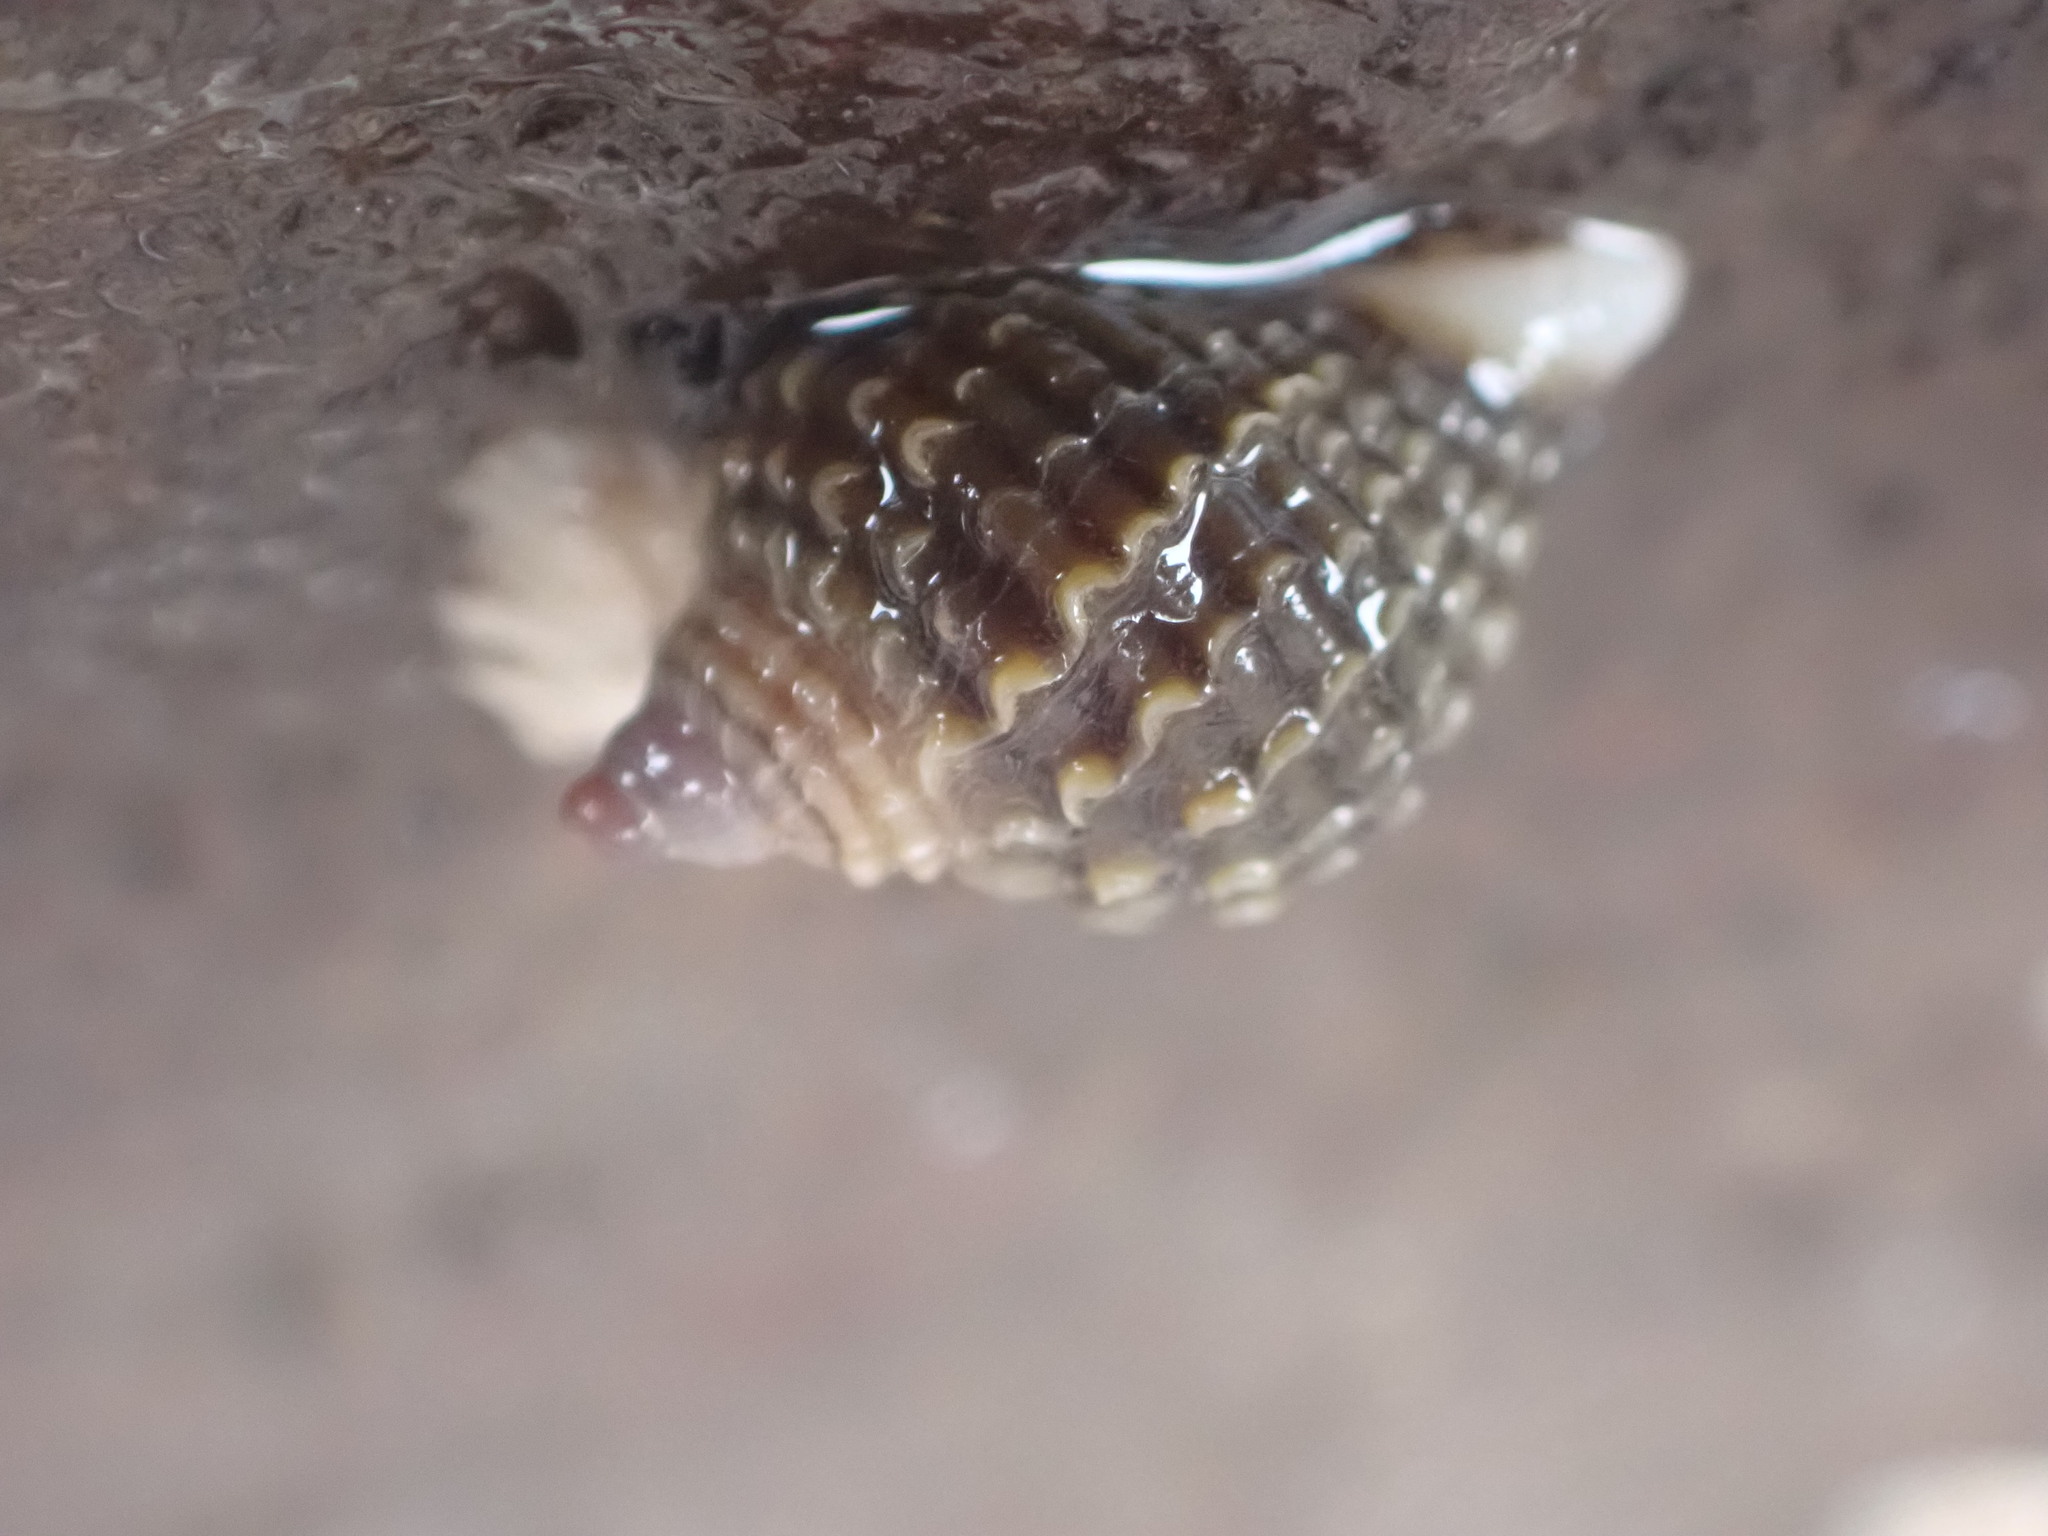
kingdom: Animalia
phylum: Mollusca
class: Gastropoda
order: Neogastropoda
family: Muricidae
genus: Nucella
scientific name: Nucella lapillus
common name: Dog whelk
